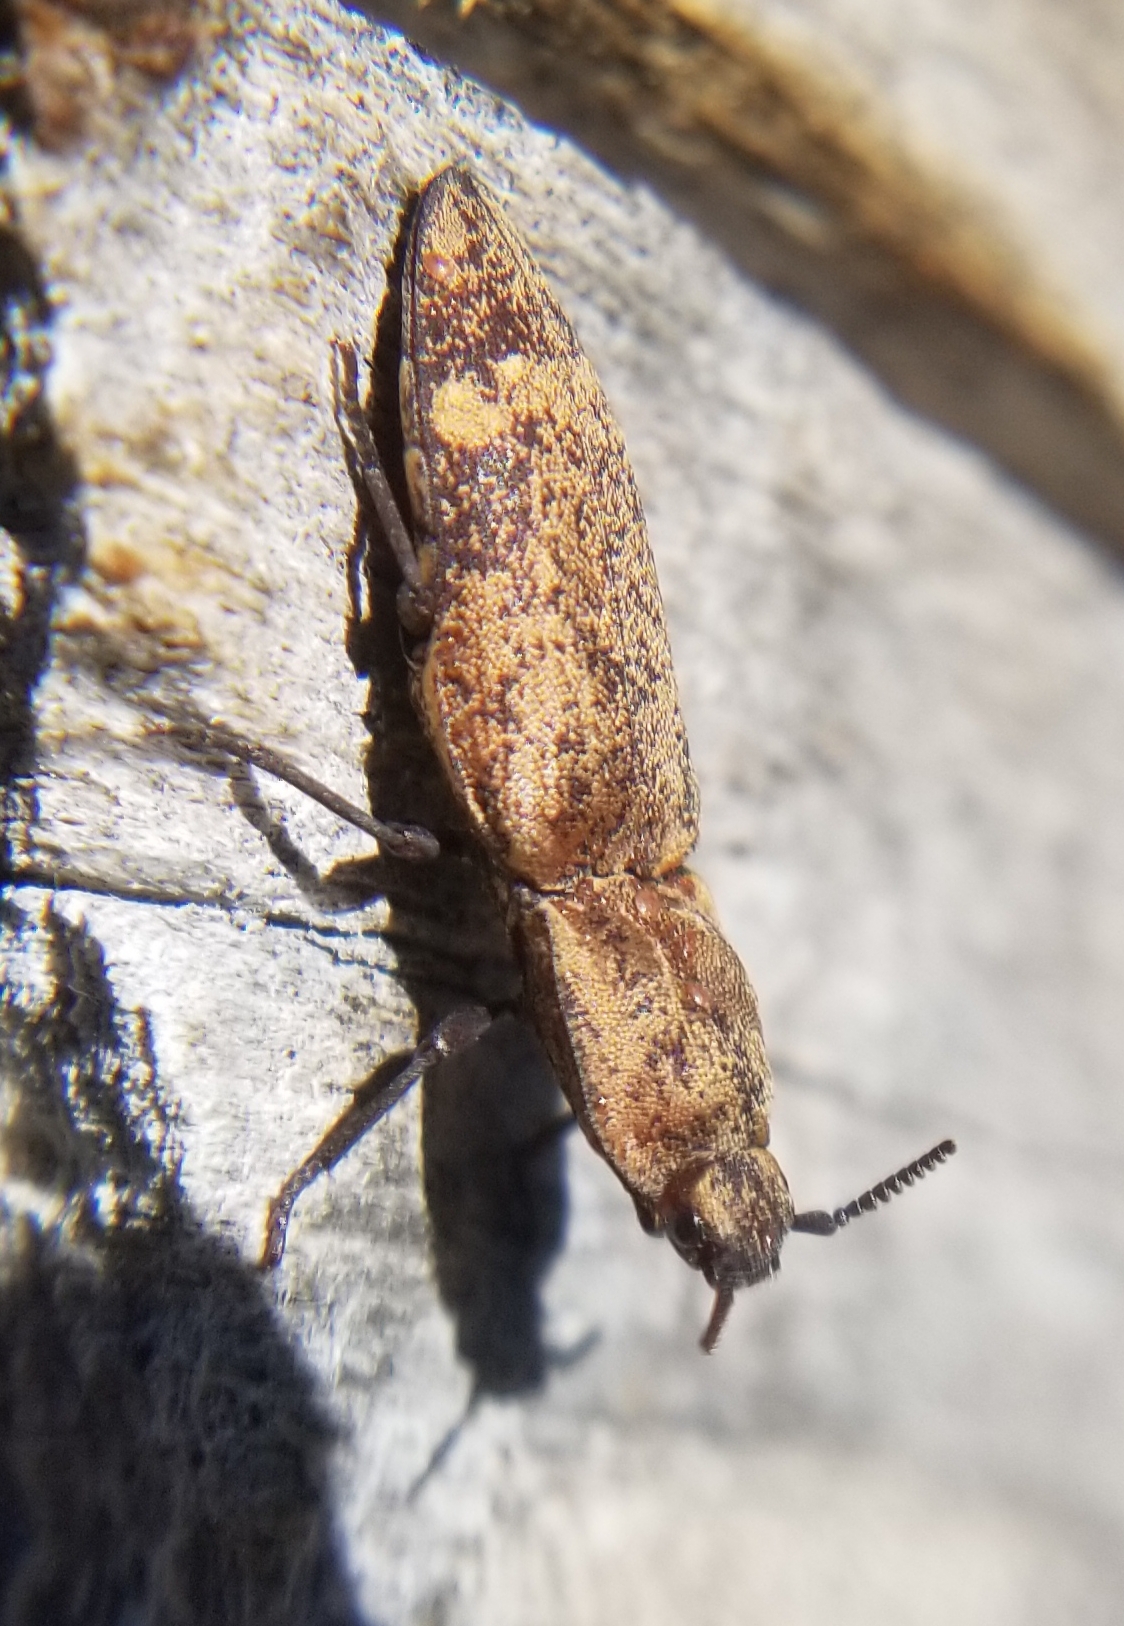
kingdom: Animalia
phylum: Arthropoda
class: Insecta
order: Coleoptera
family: Elateridae
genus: Danosoma
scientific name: Danosoma brevicorne
